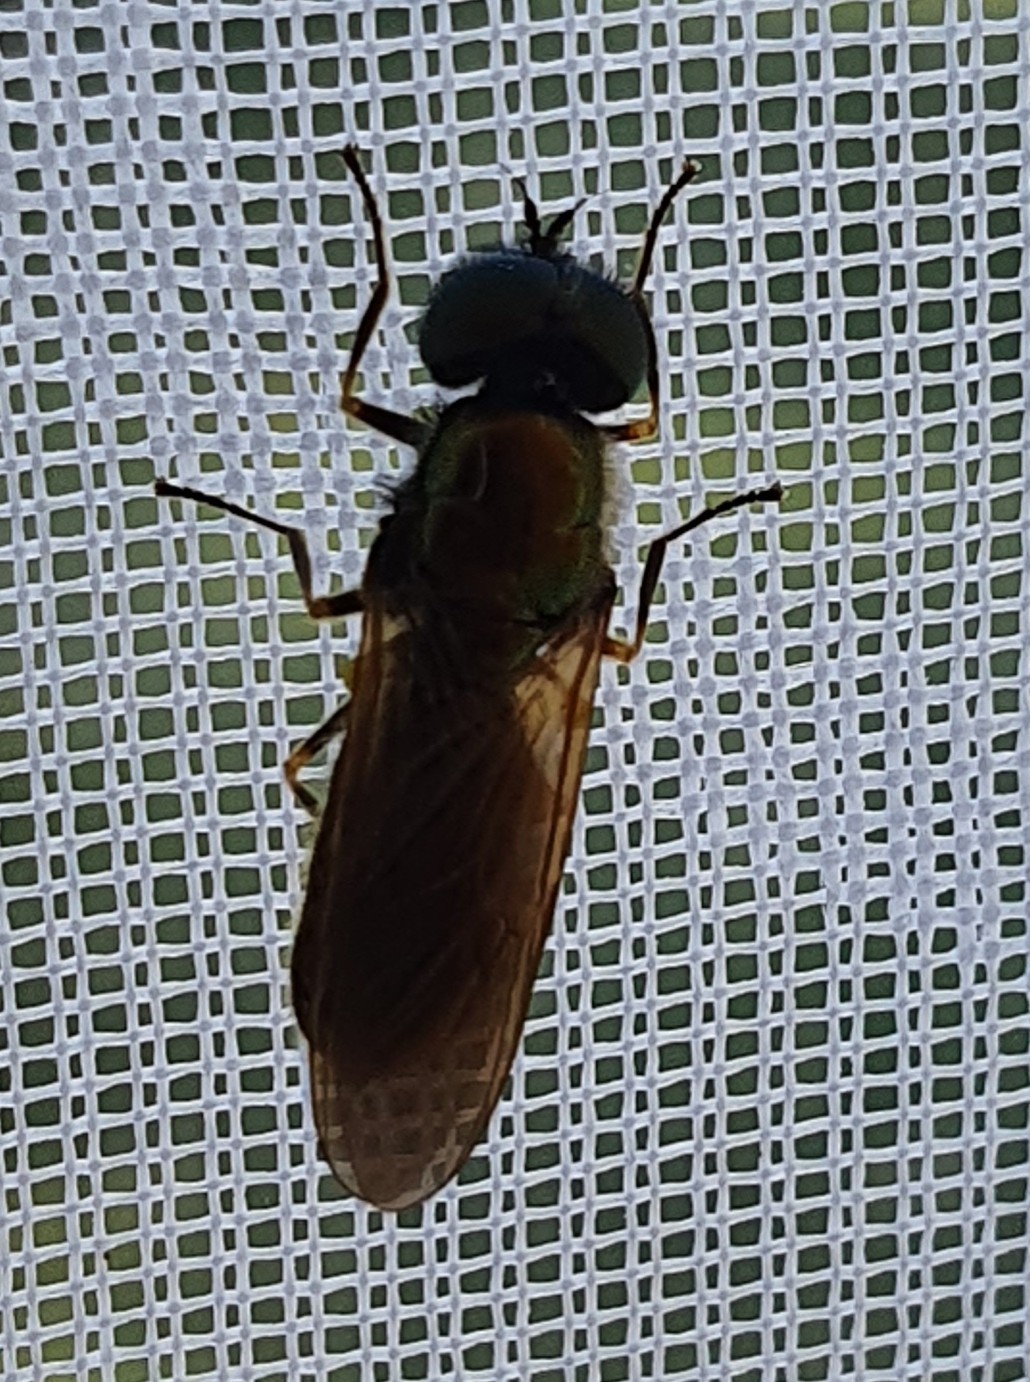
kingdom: Animalia
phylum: Arthropoda
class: Insecta
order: Diptera
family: Stratiomyidae
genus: Chloromyia
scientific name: Chloromyia formosa
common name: Soldier fly
